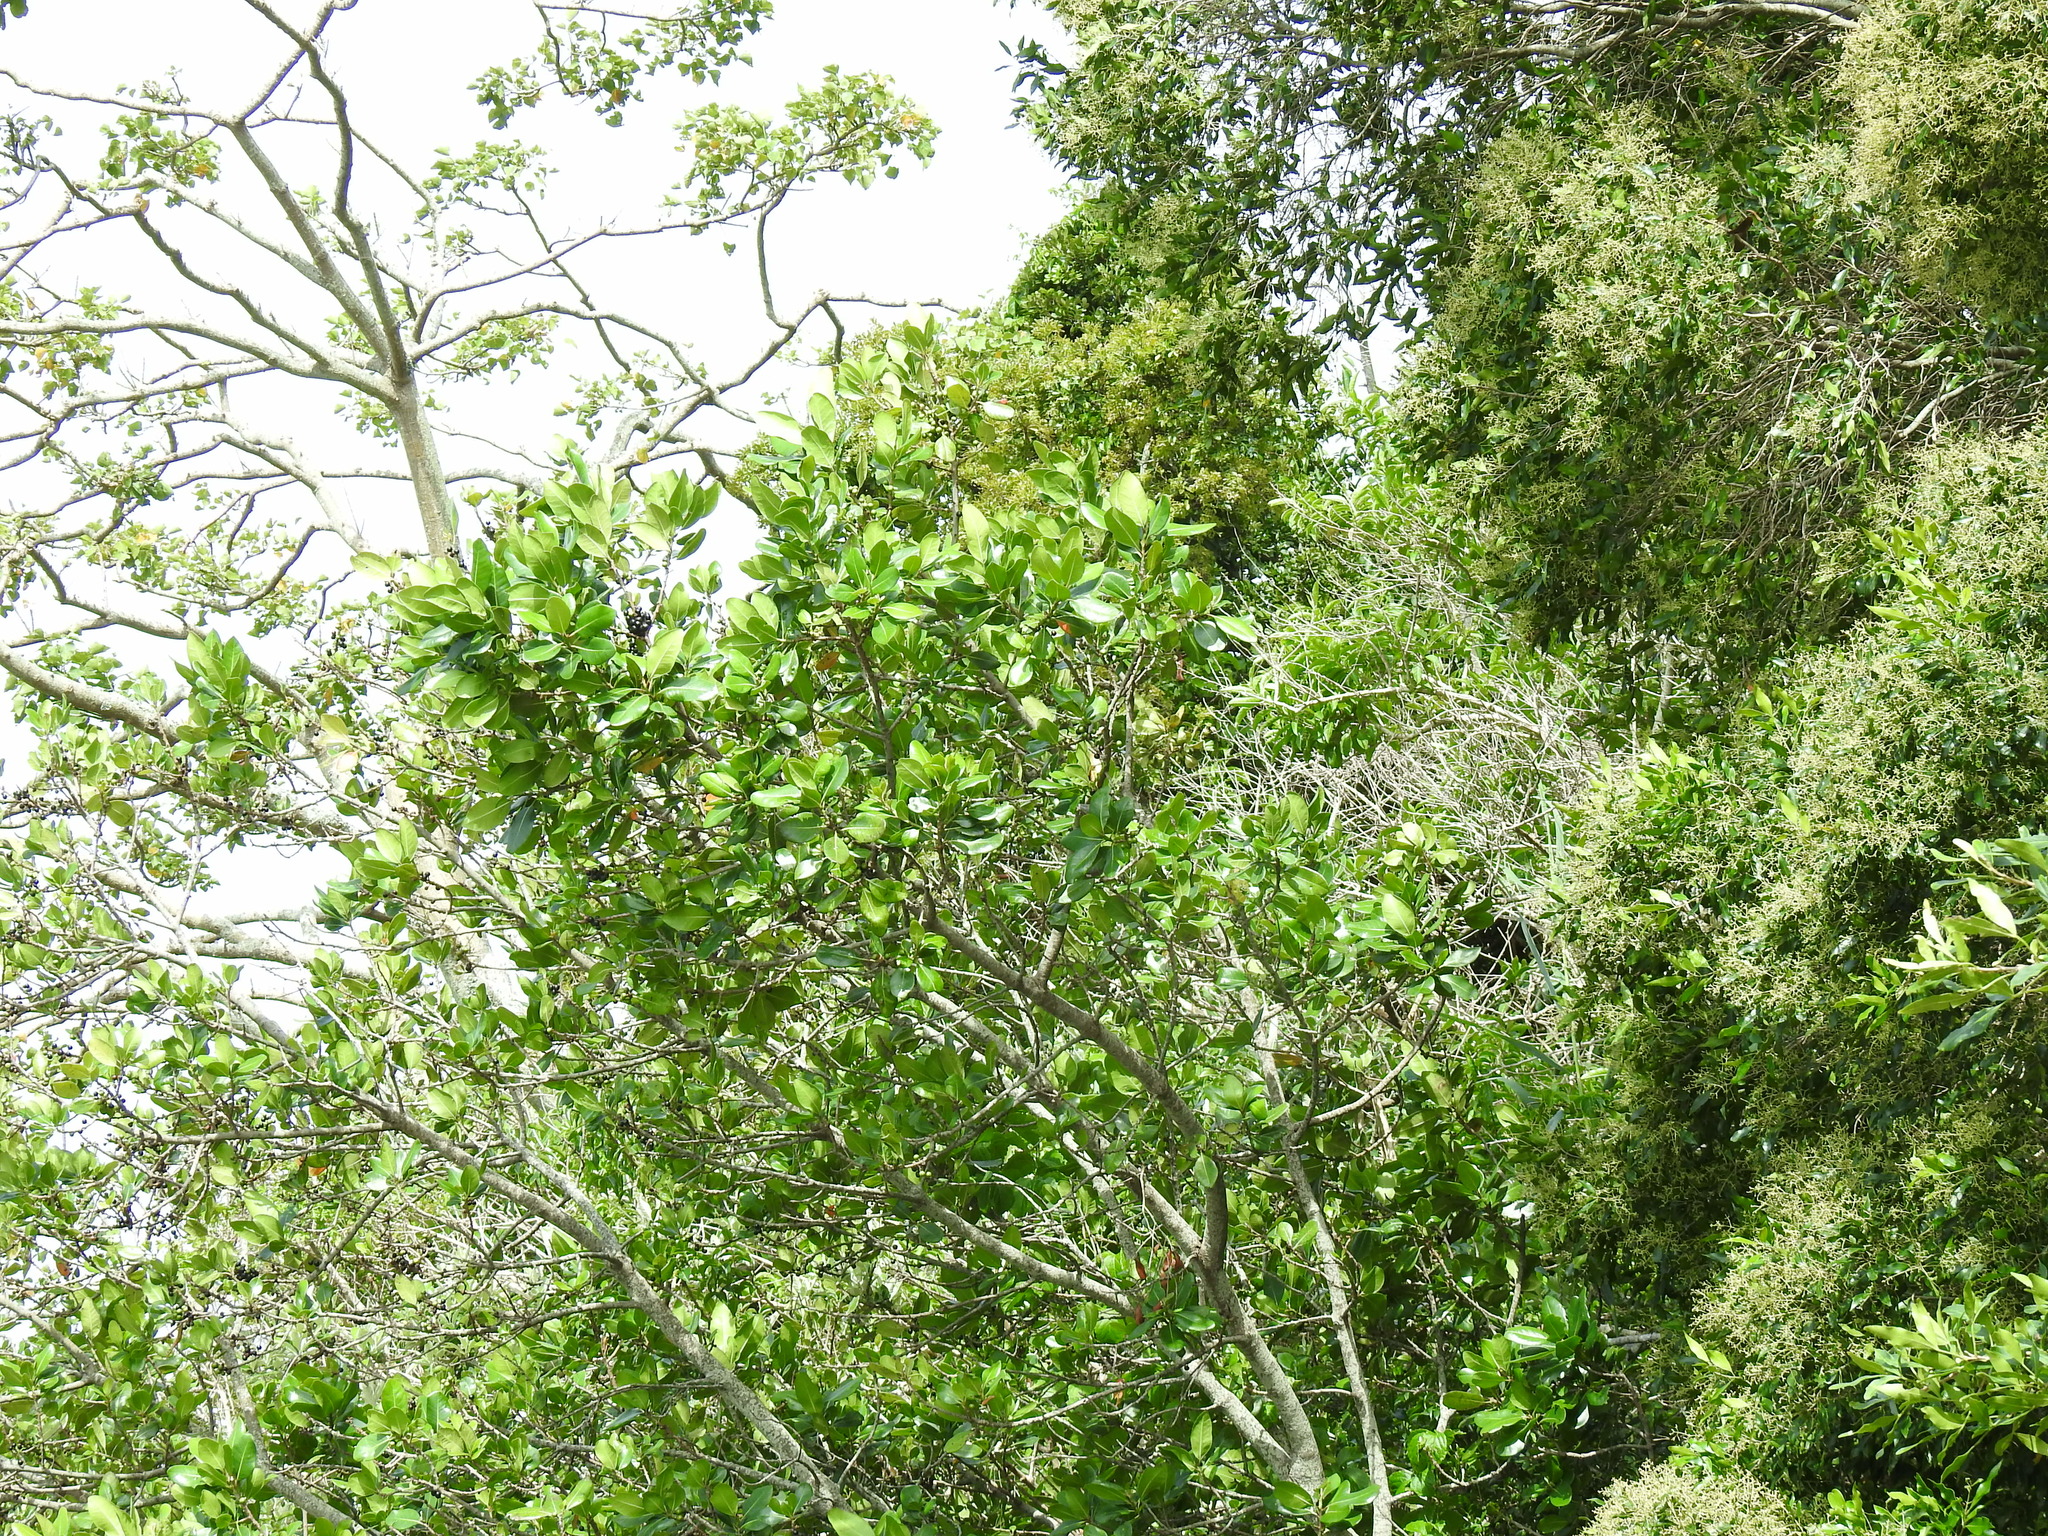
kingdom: Plantae
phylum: Tracheophyta
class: Magnoliopsida
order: Ericales
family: Sapotaceae
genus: Sideroxylon
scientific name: Sideroxylon inerme
